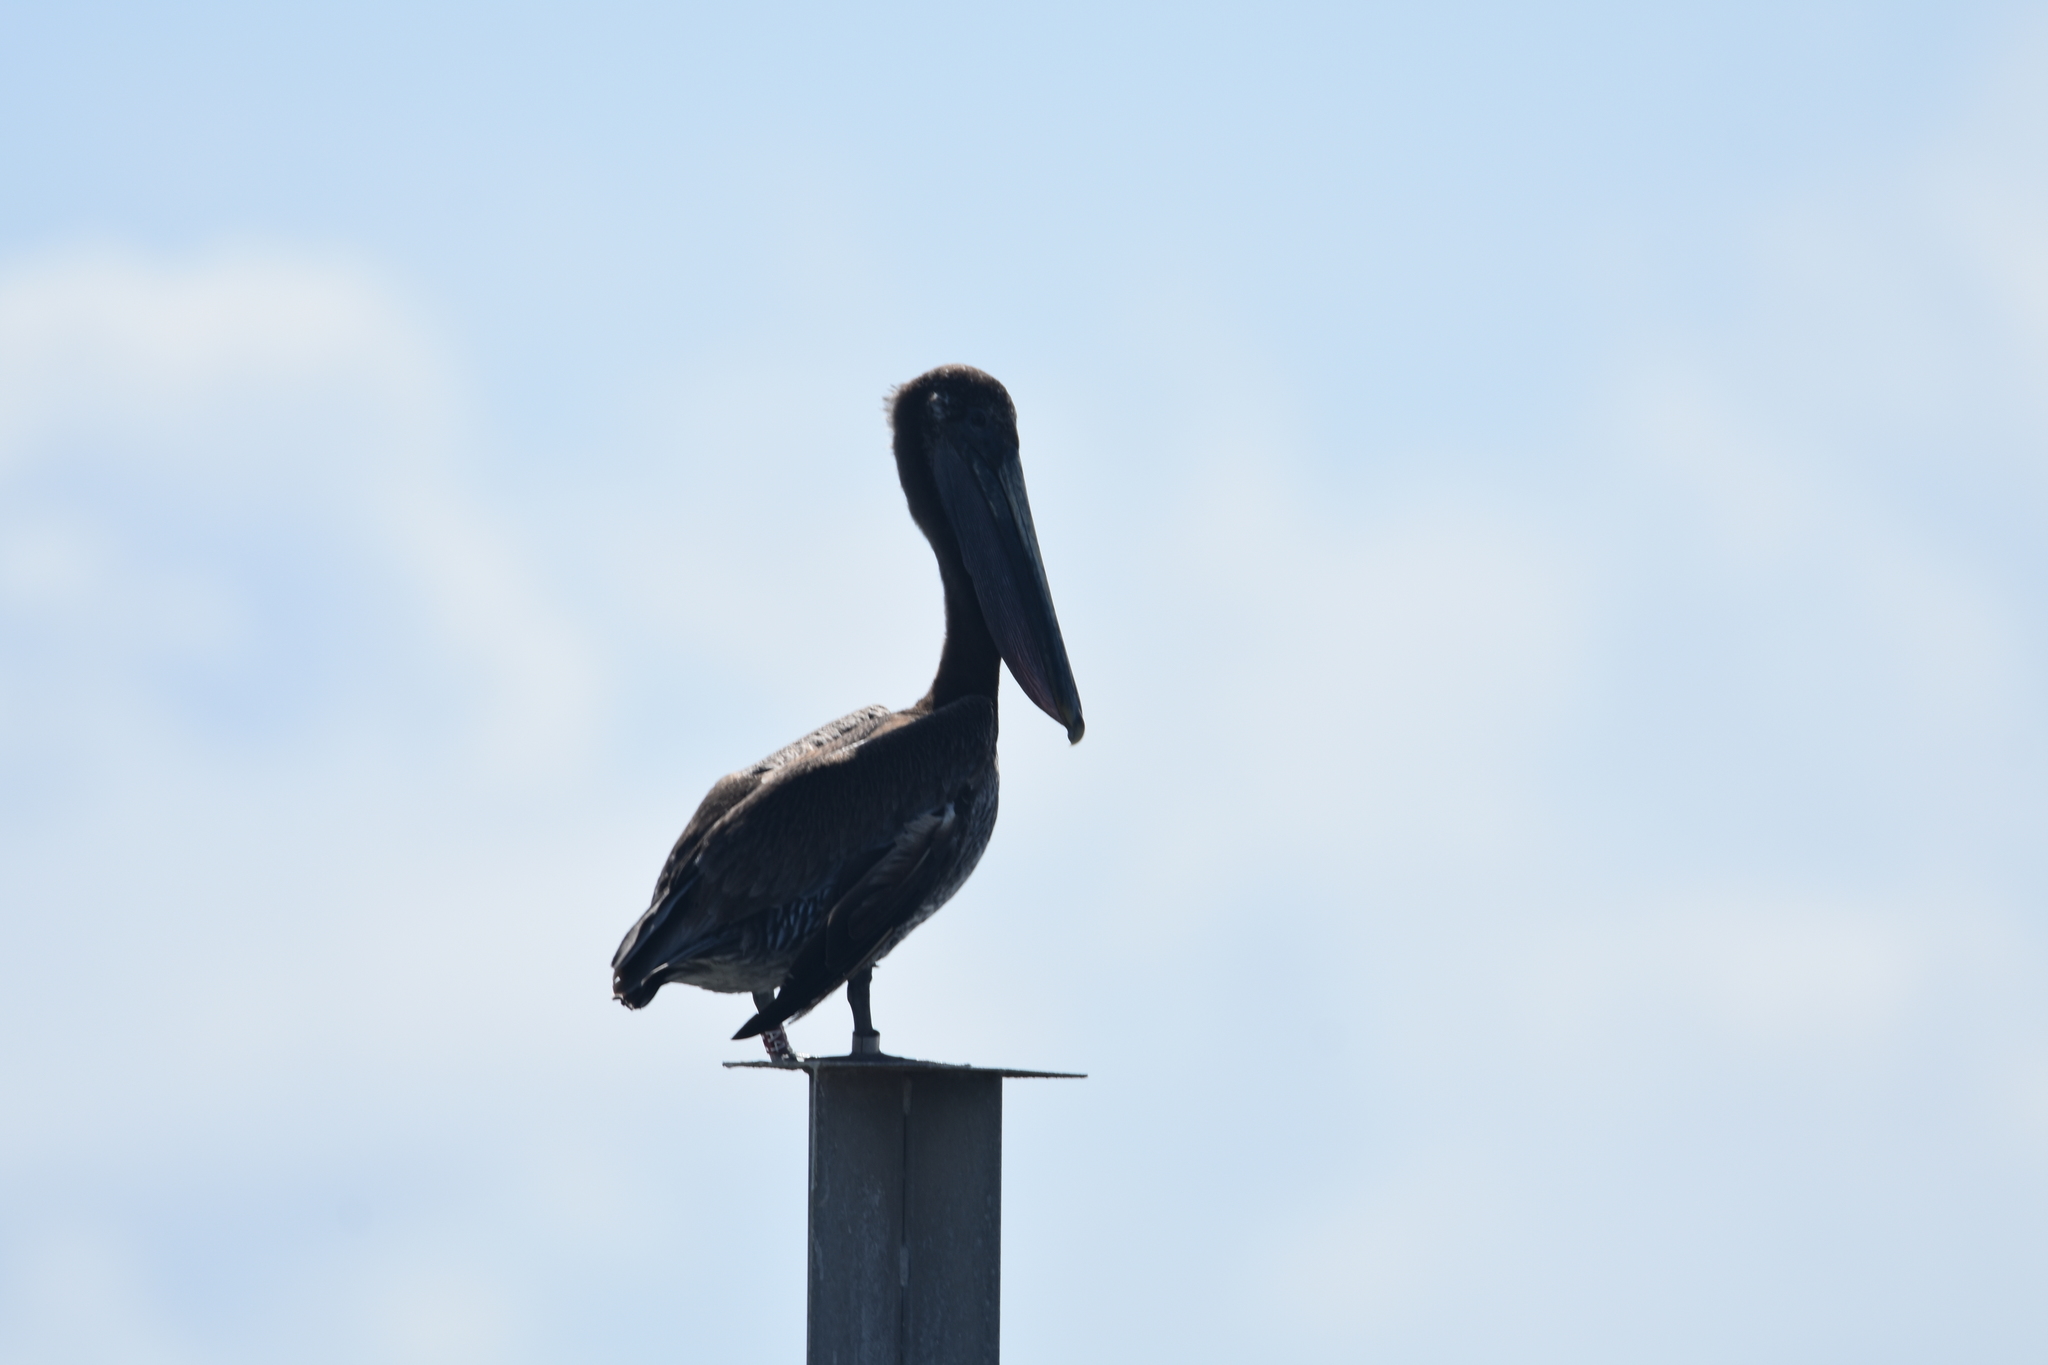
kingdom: Animalia
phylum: Chordata
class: Aves
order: Pelecaniformes
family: Pelecanidae
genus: Pelecanus
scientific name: Pelecanus occidentalis
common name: Brown pelican
